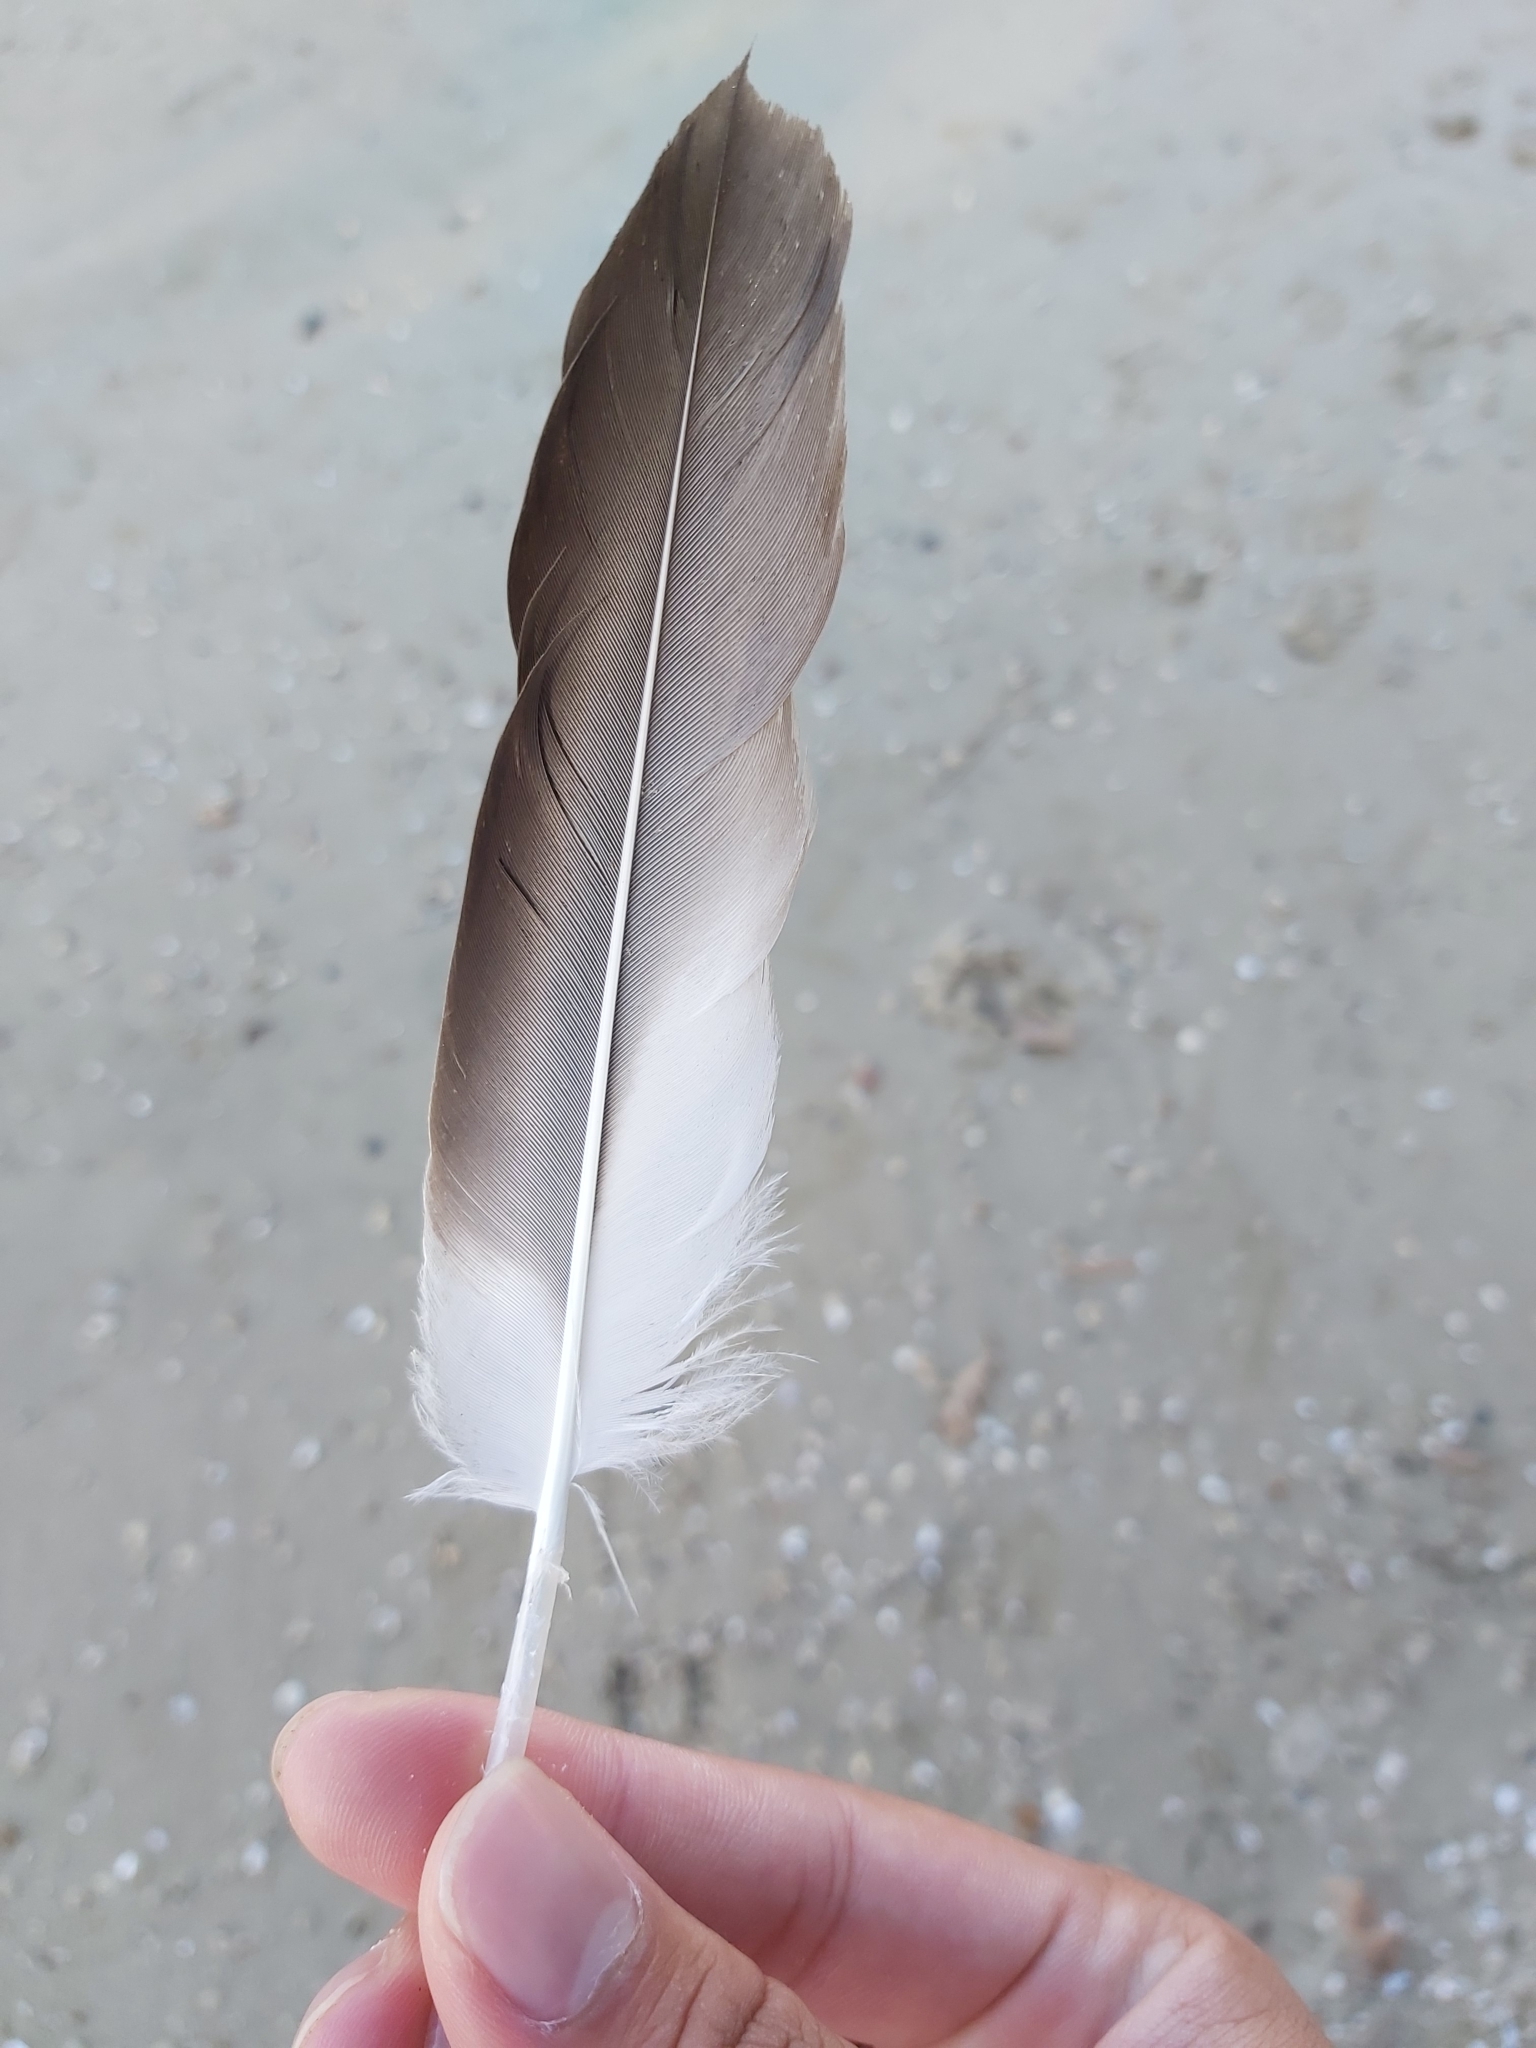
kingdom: Animalia
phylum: Chordata
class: Aves
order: Pelecaniformes
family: Pelecanidae
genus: Pelecanus
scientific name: Pelecanus conspicillatus
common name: Australian pelican
